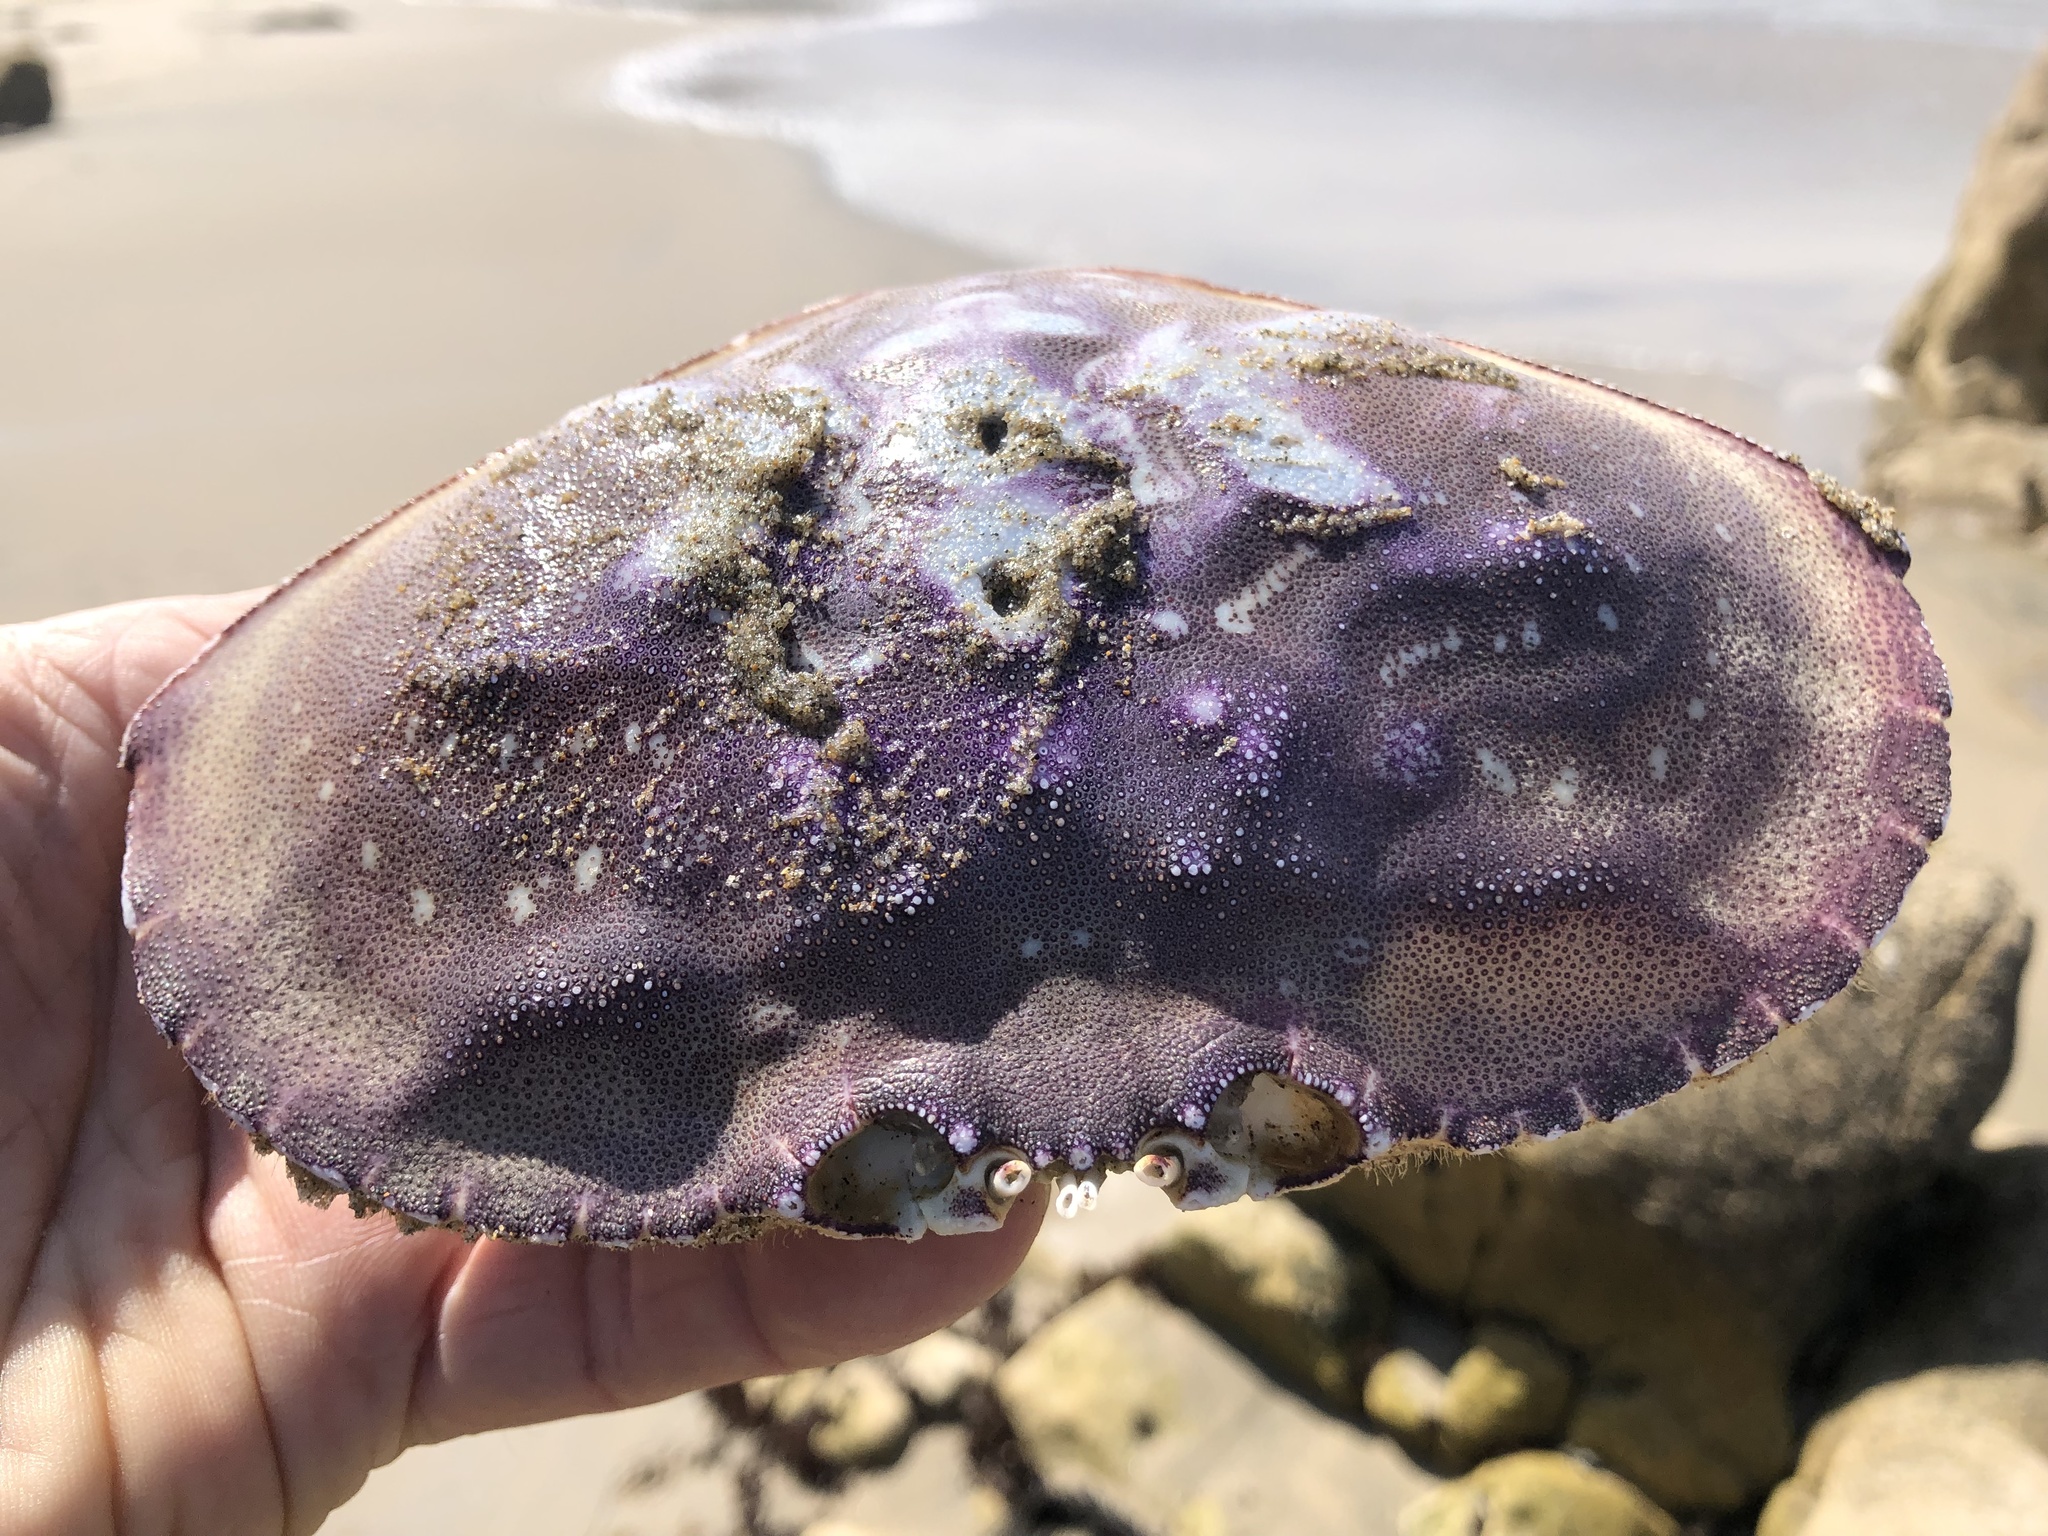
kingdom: Animalia
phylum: Arthropoda
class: Malacostraca
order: Decapoda
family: Cancridae
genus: Metacarcinus
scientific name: Metacarcinus magister
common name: Californian crab
